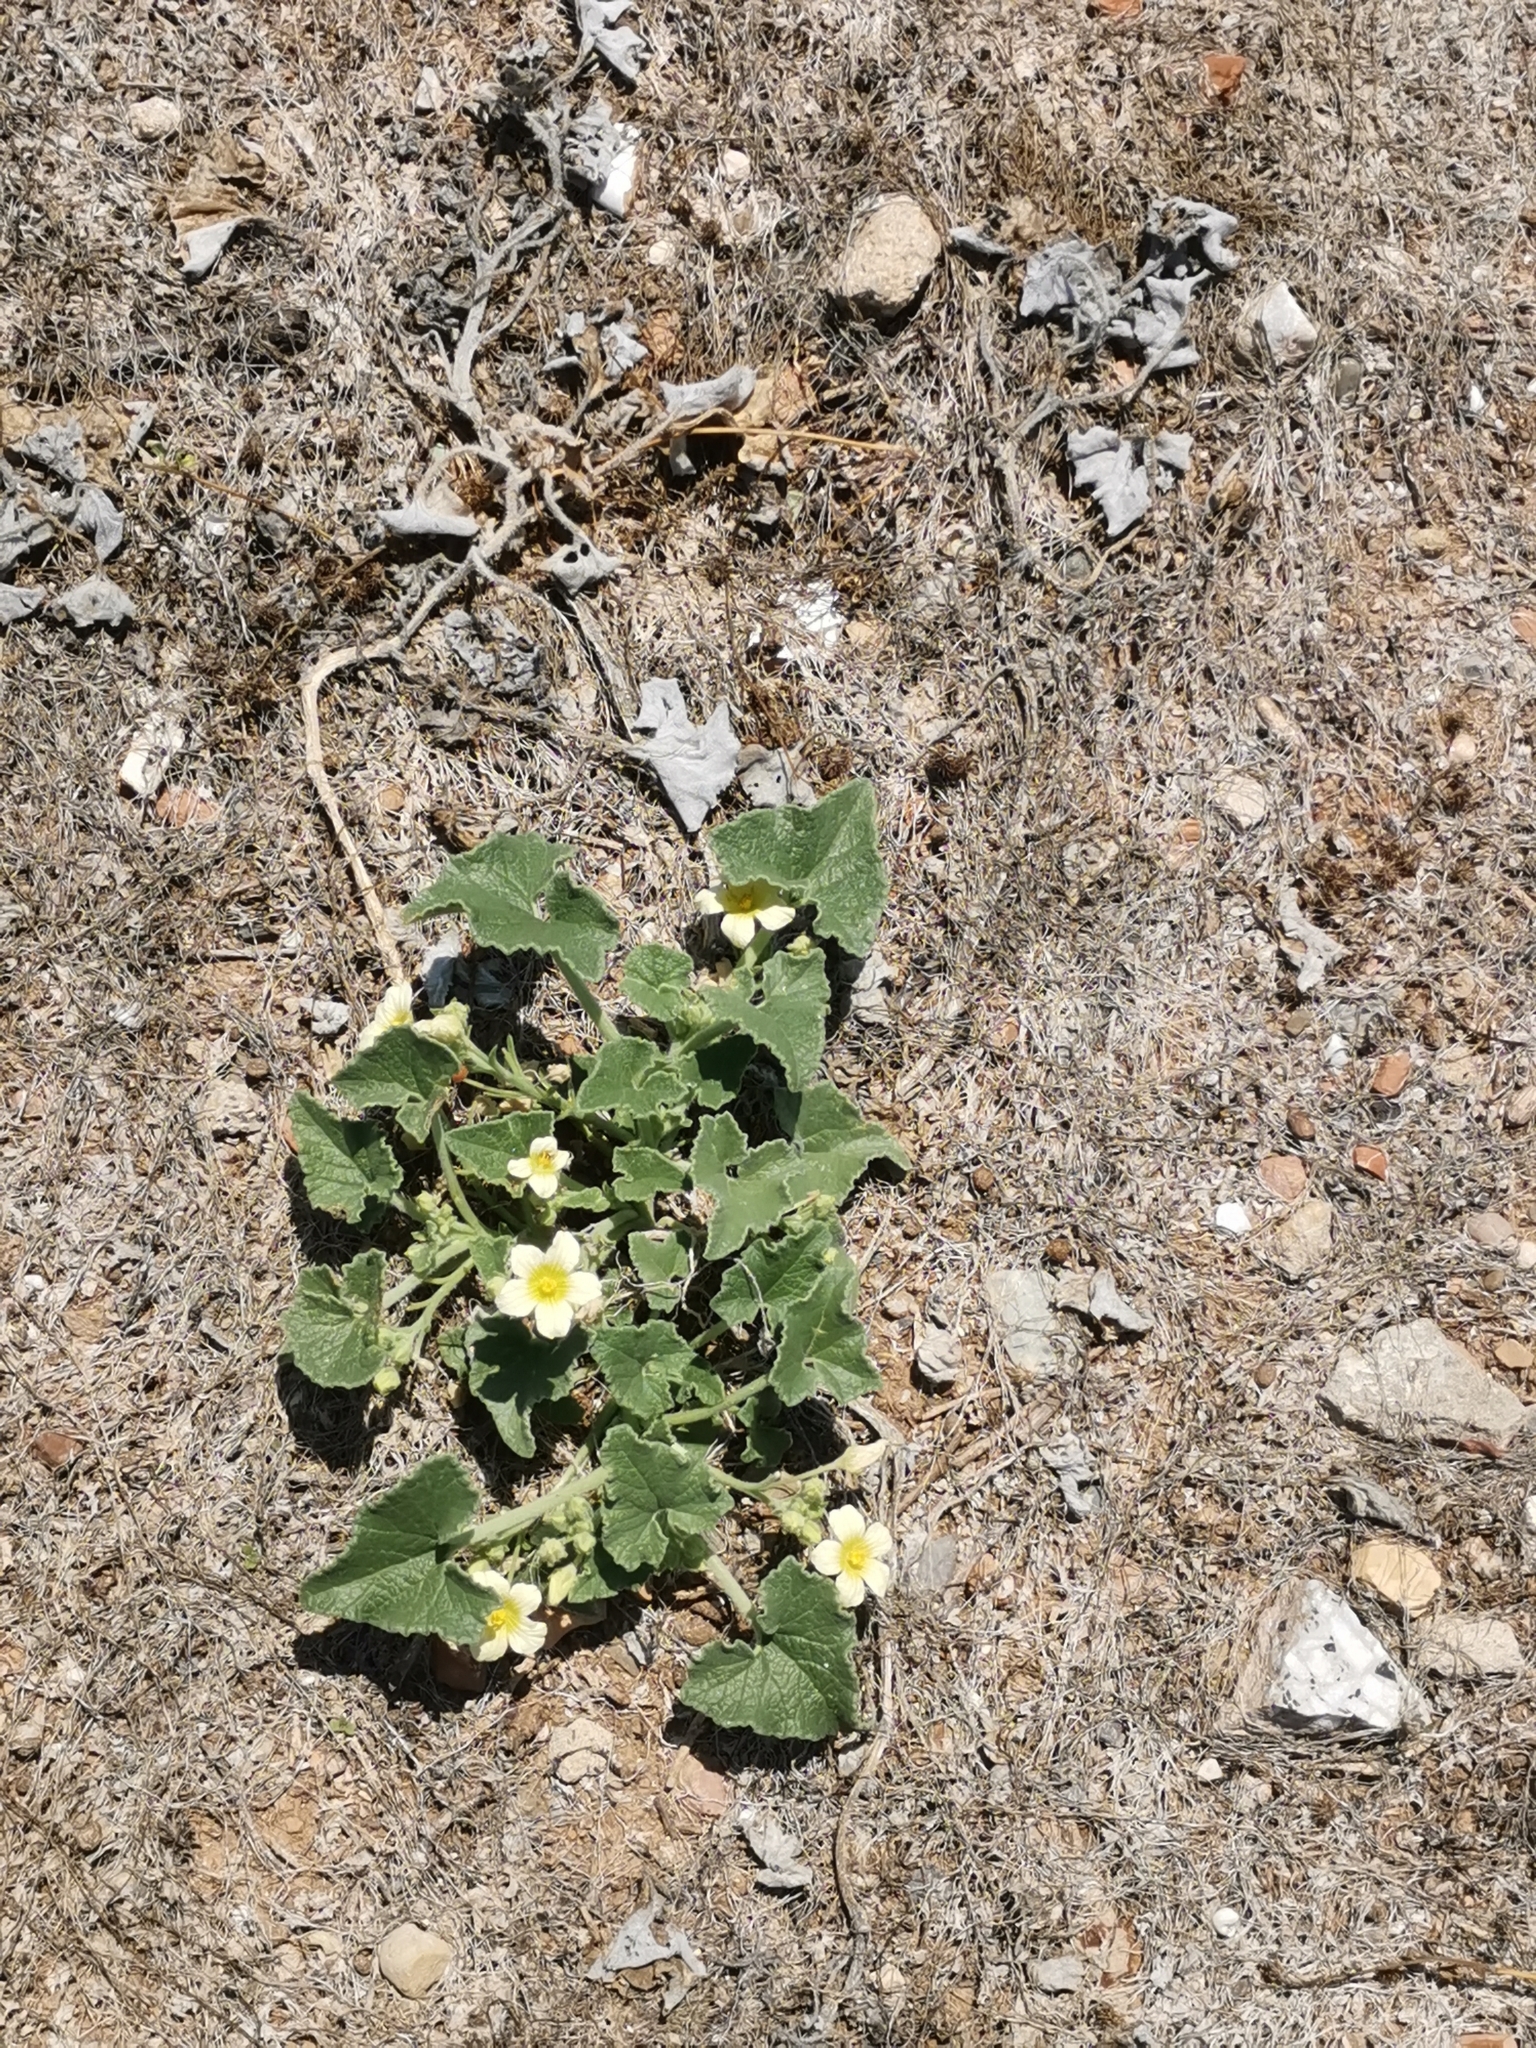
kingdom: Plantae
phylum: Tracheophyta
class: Magnoliopsida
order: Cucurbitales
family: Cucurbitaceae
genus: Ecballium
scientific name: Ecballium elaterium
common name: Squirting cucumber
